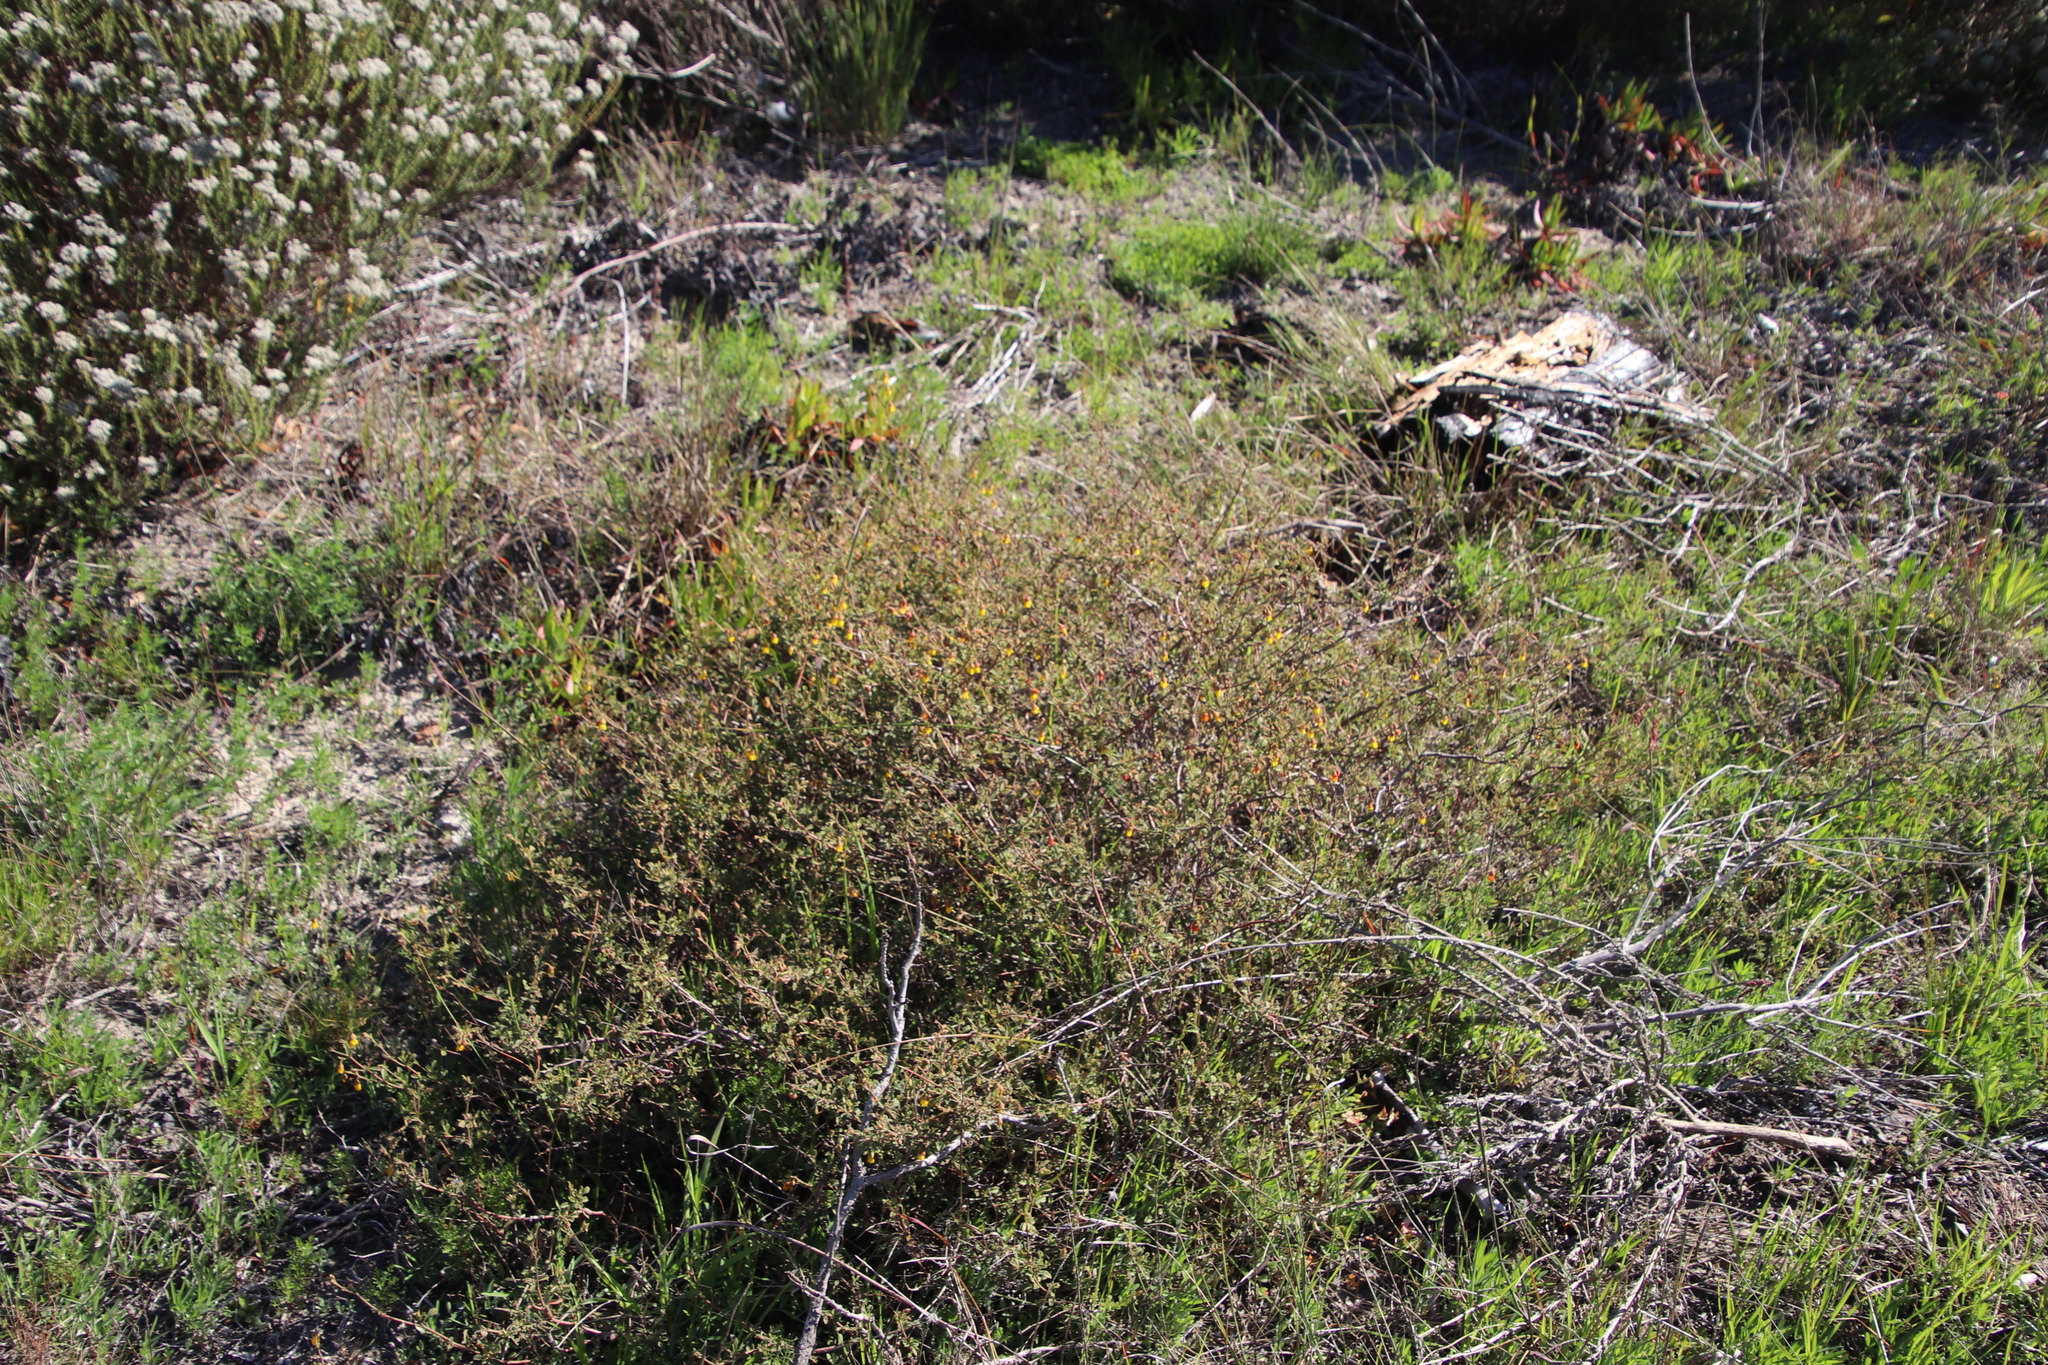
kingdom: Plantae
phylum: Tracheophyta
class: Magnoliopsida
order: Malvales
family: Malvaceae
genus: Hermannia
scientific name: Hermannia multiflora
